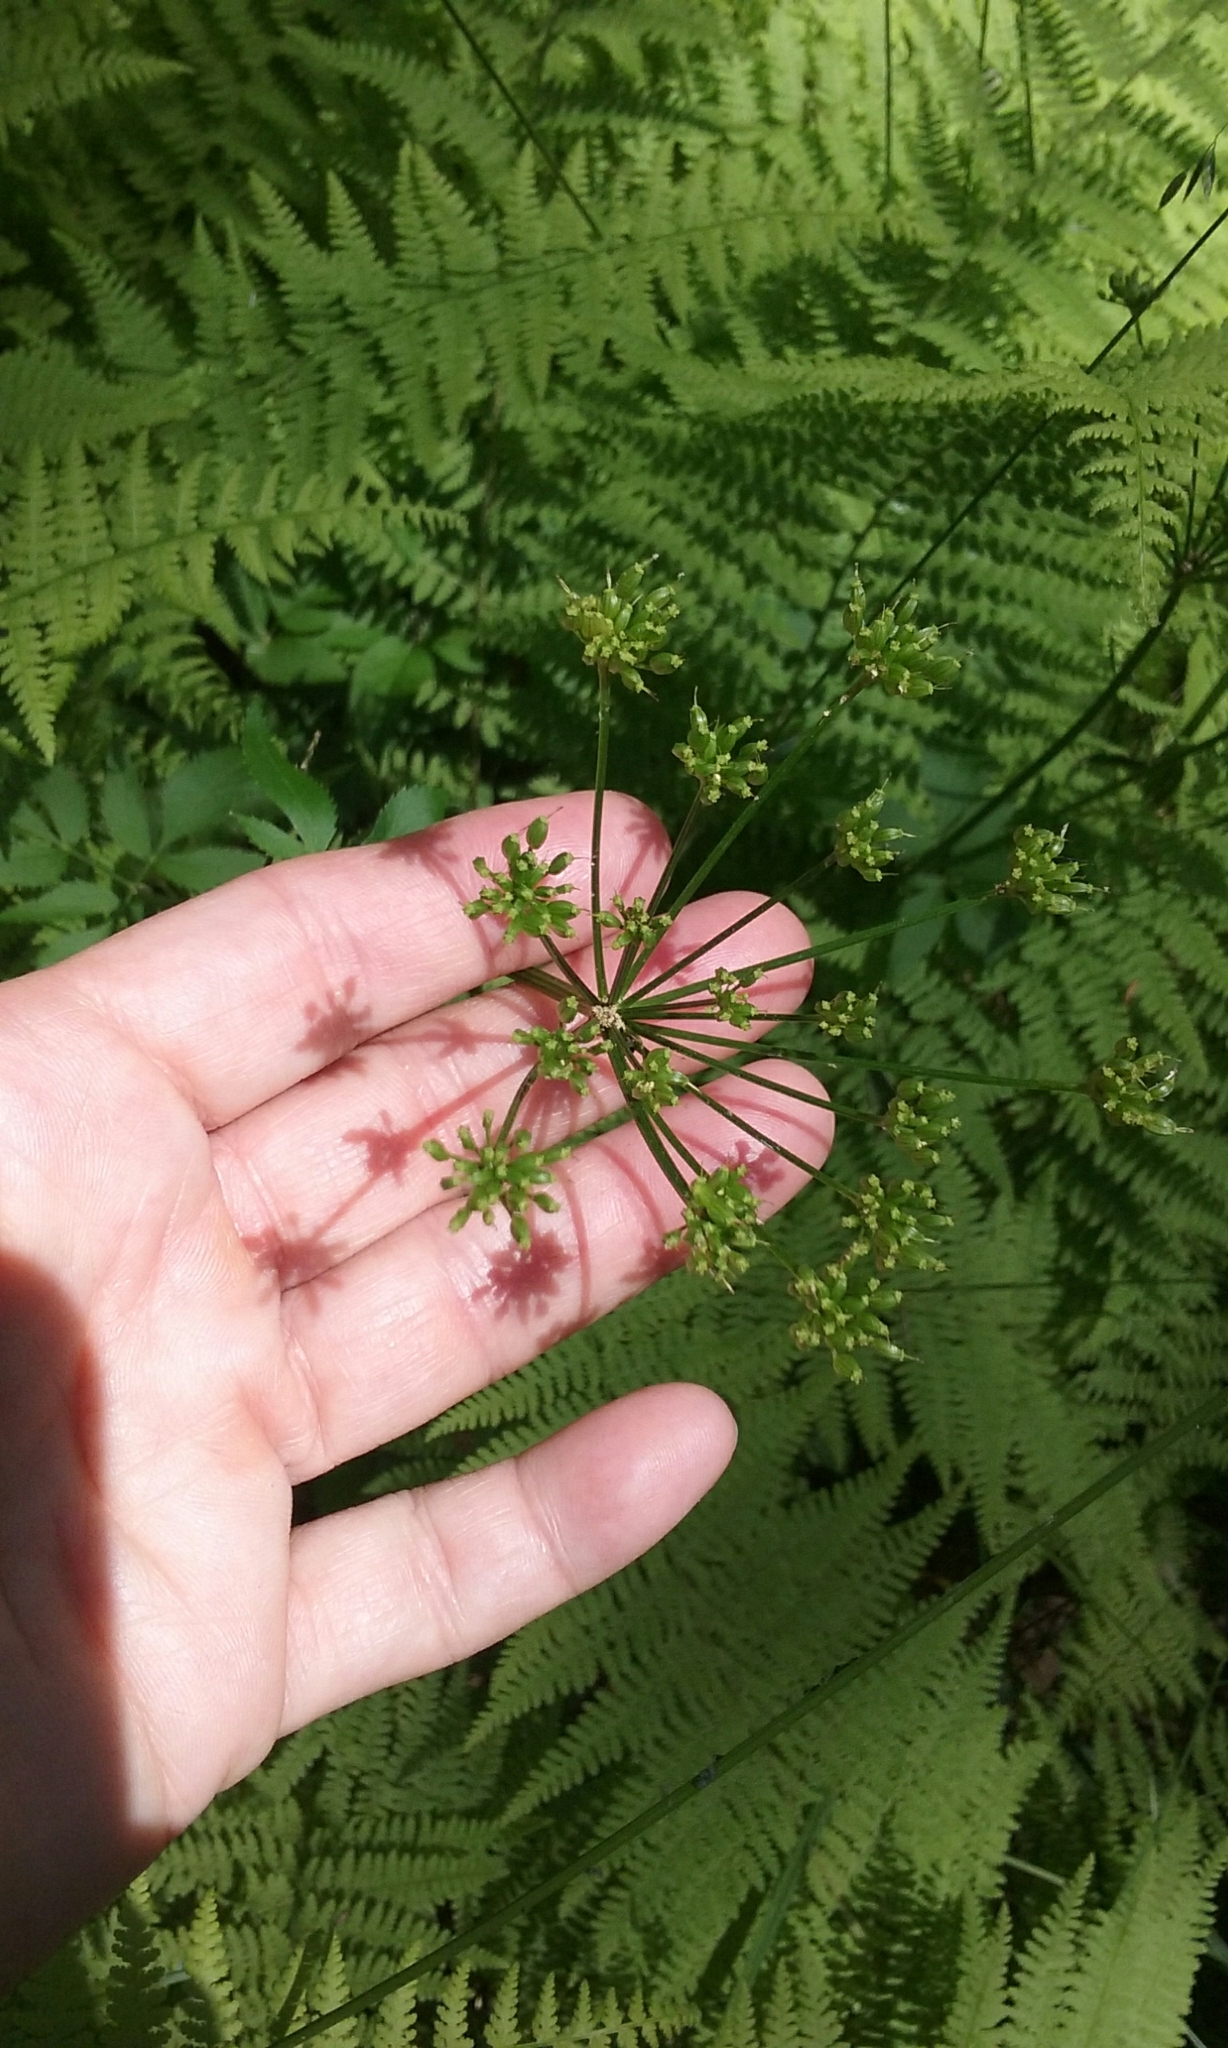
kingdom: Plantae
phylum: Tracheophyta
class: Magnoliopsida
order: Apiales
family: Apiaceae
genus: Zizia
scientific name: Zizia aurea
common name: Golden alexanders
